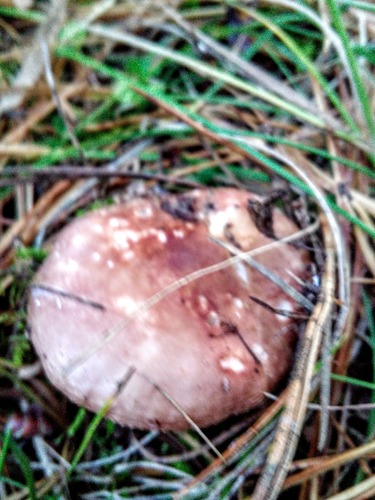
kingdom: Fungi
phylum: Basidiomycota
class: Agaricomycetes
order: Russulales
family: Russulaceae
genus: Russula
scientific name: Russula
